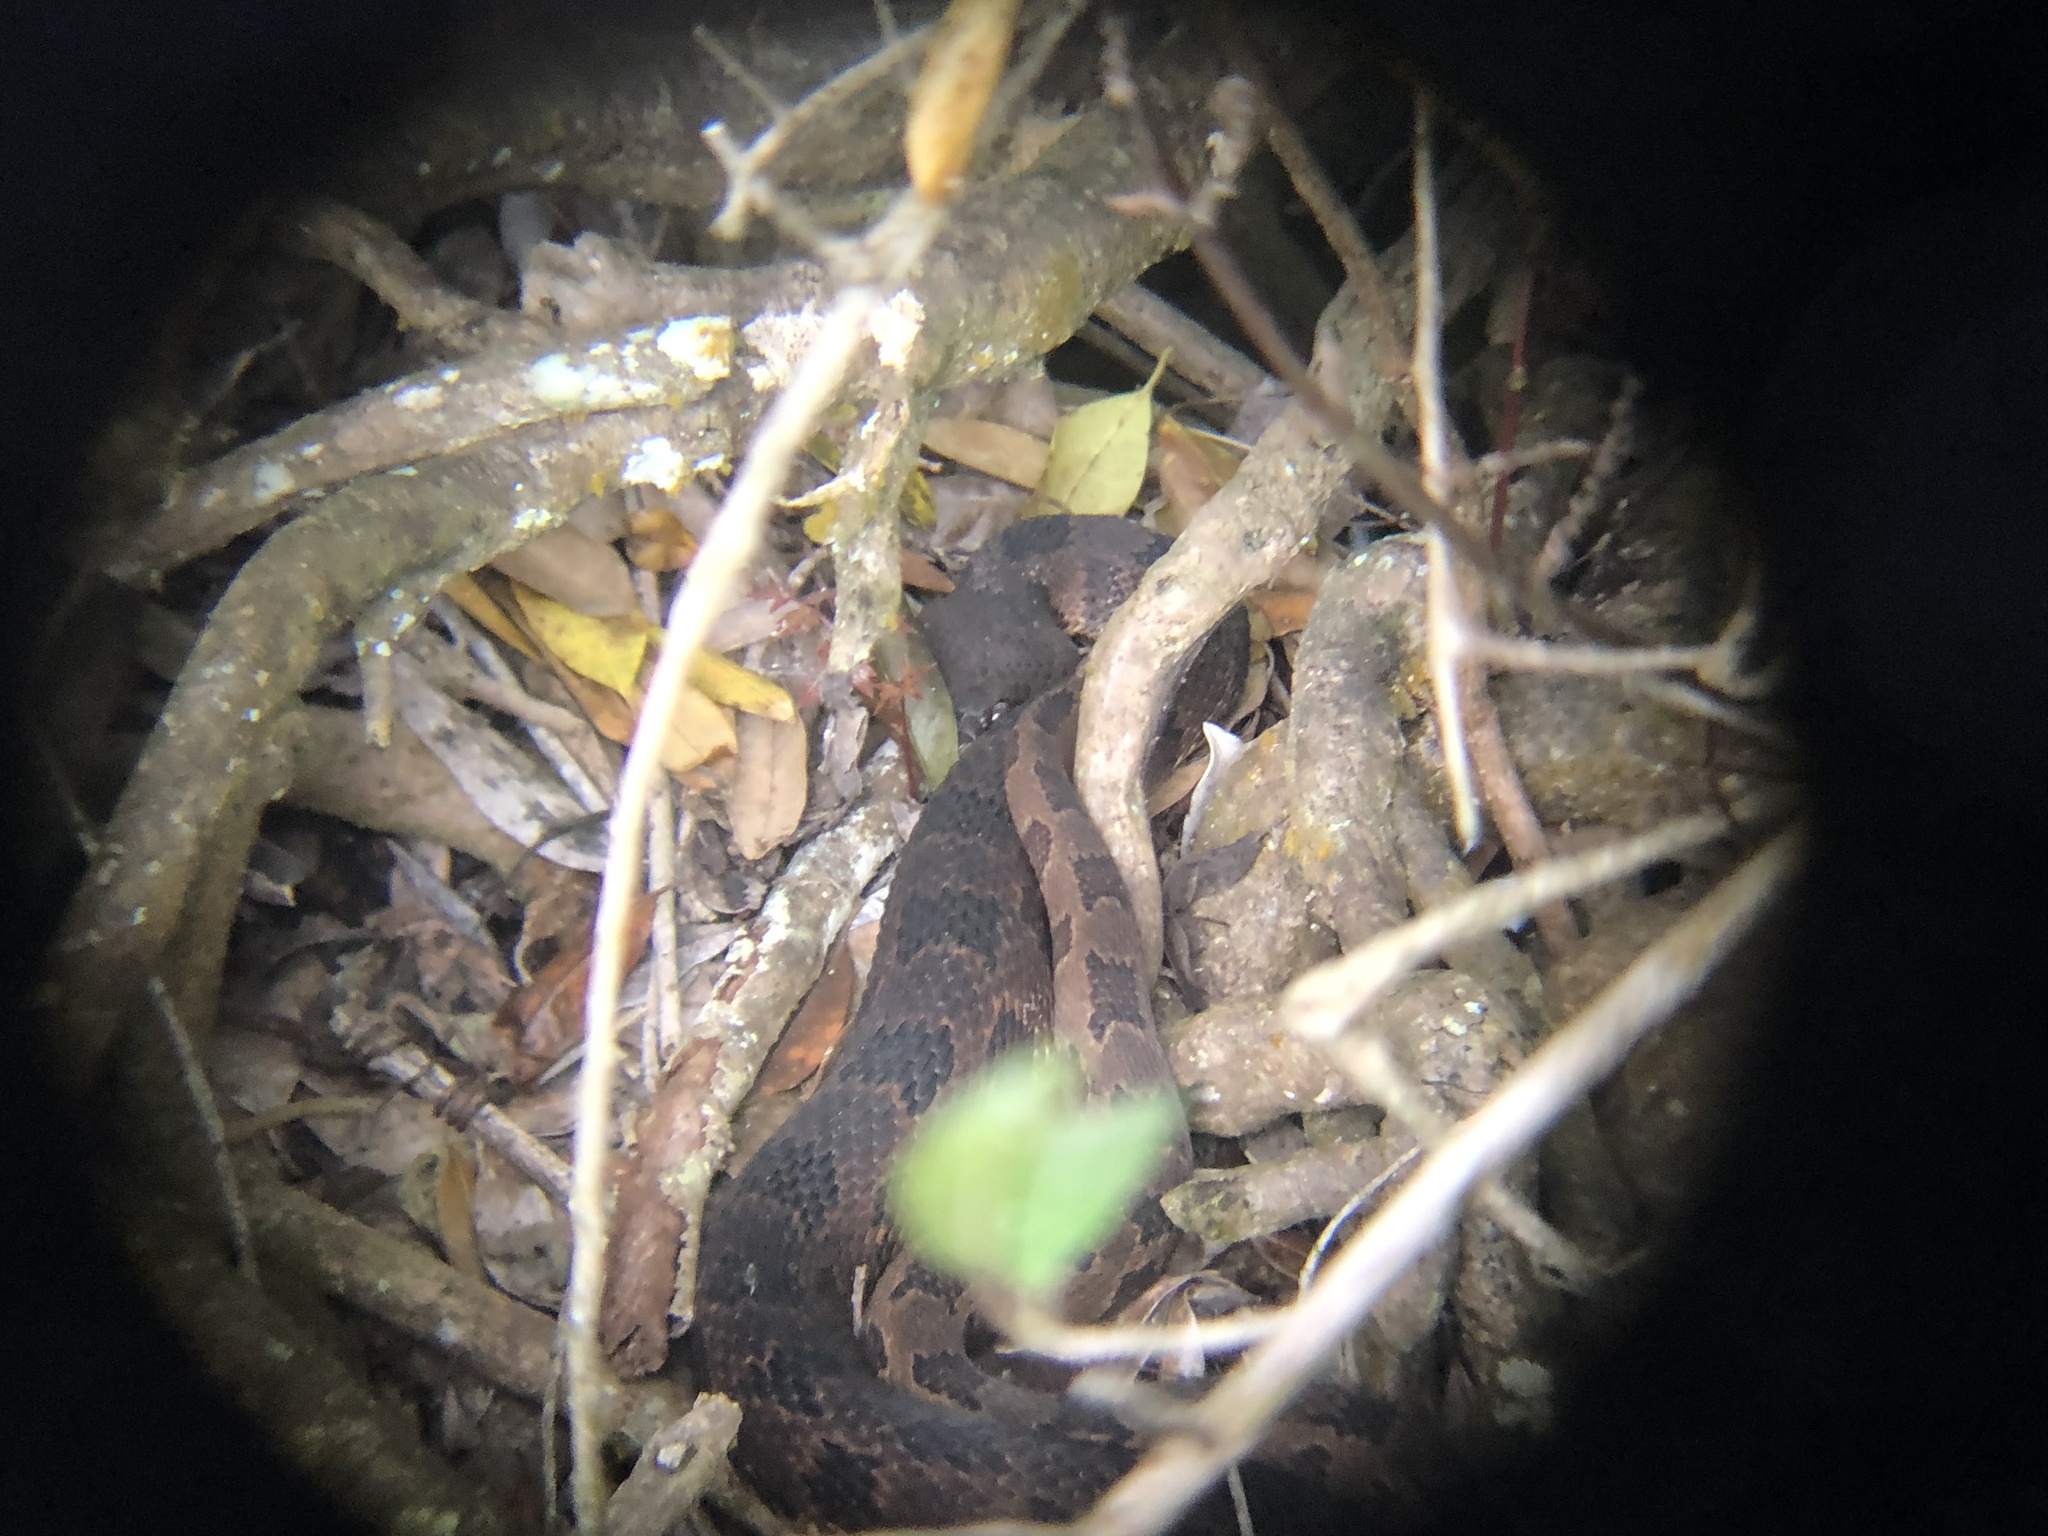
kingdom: Animalia
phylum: Chordata
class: Squamata
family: Colubridae
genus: Nerodia
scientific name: Nerodia taxispilota
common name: Brown water snake
